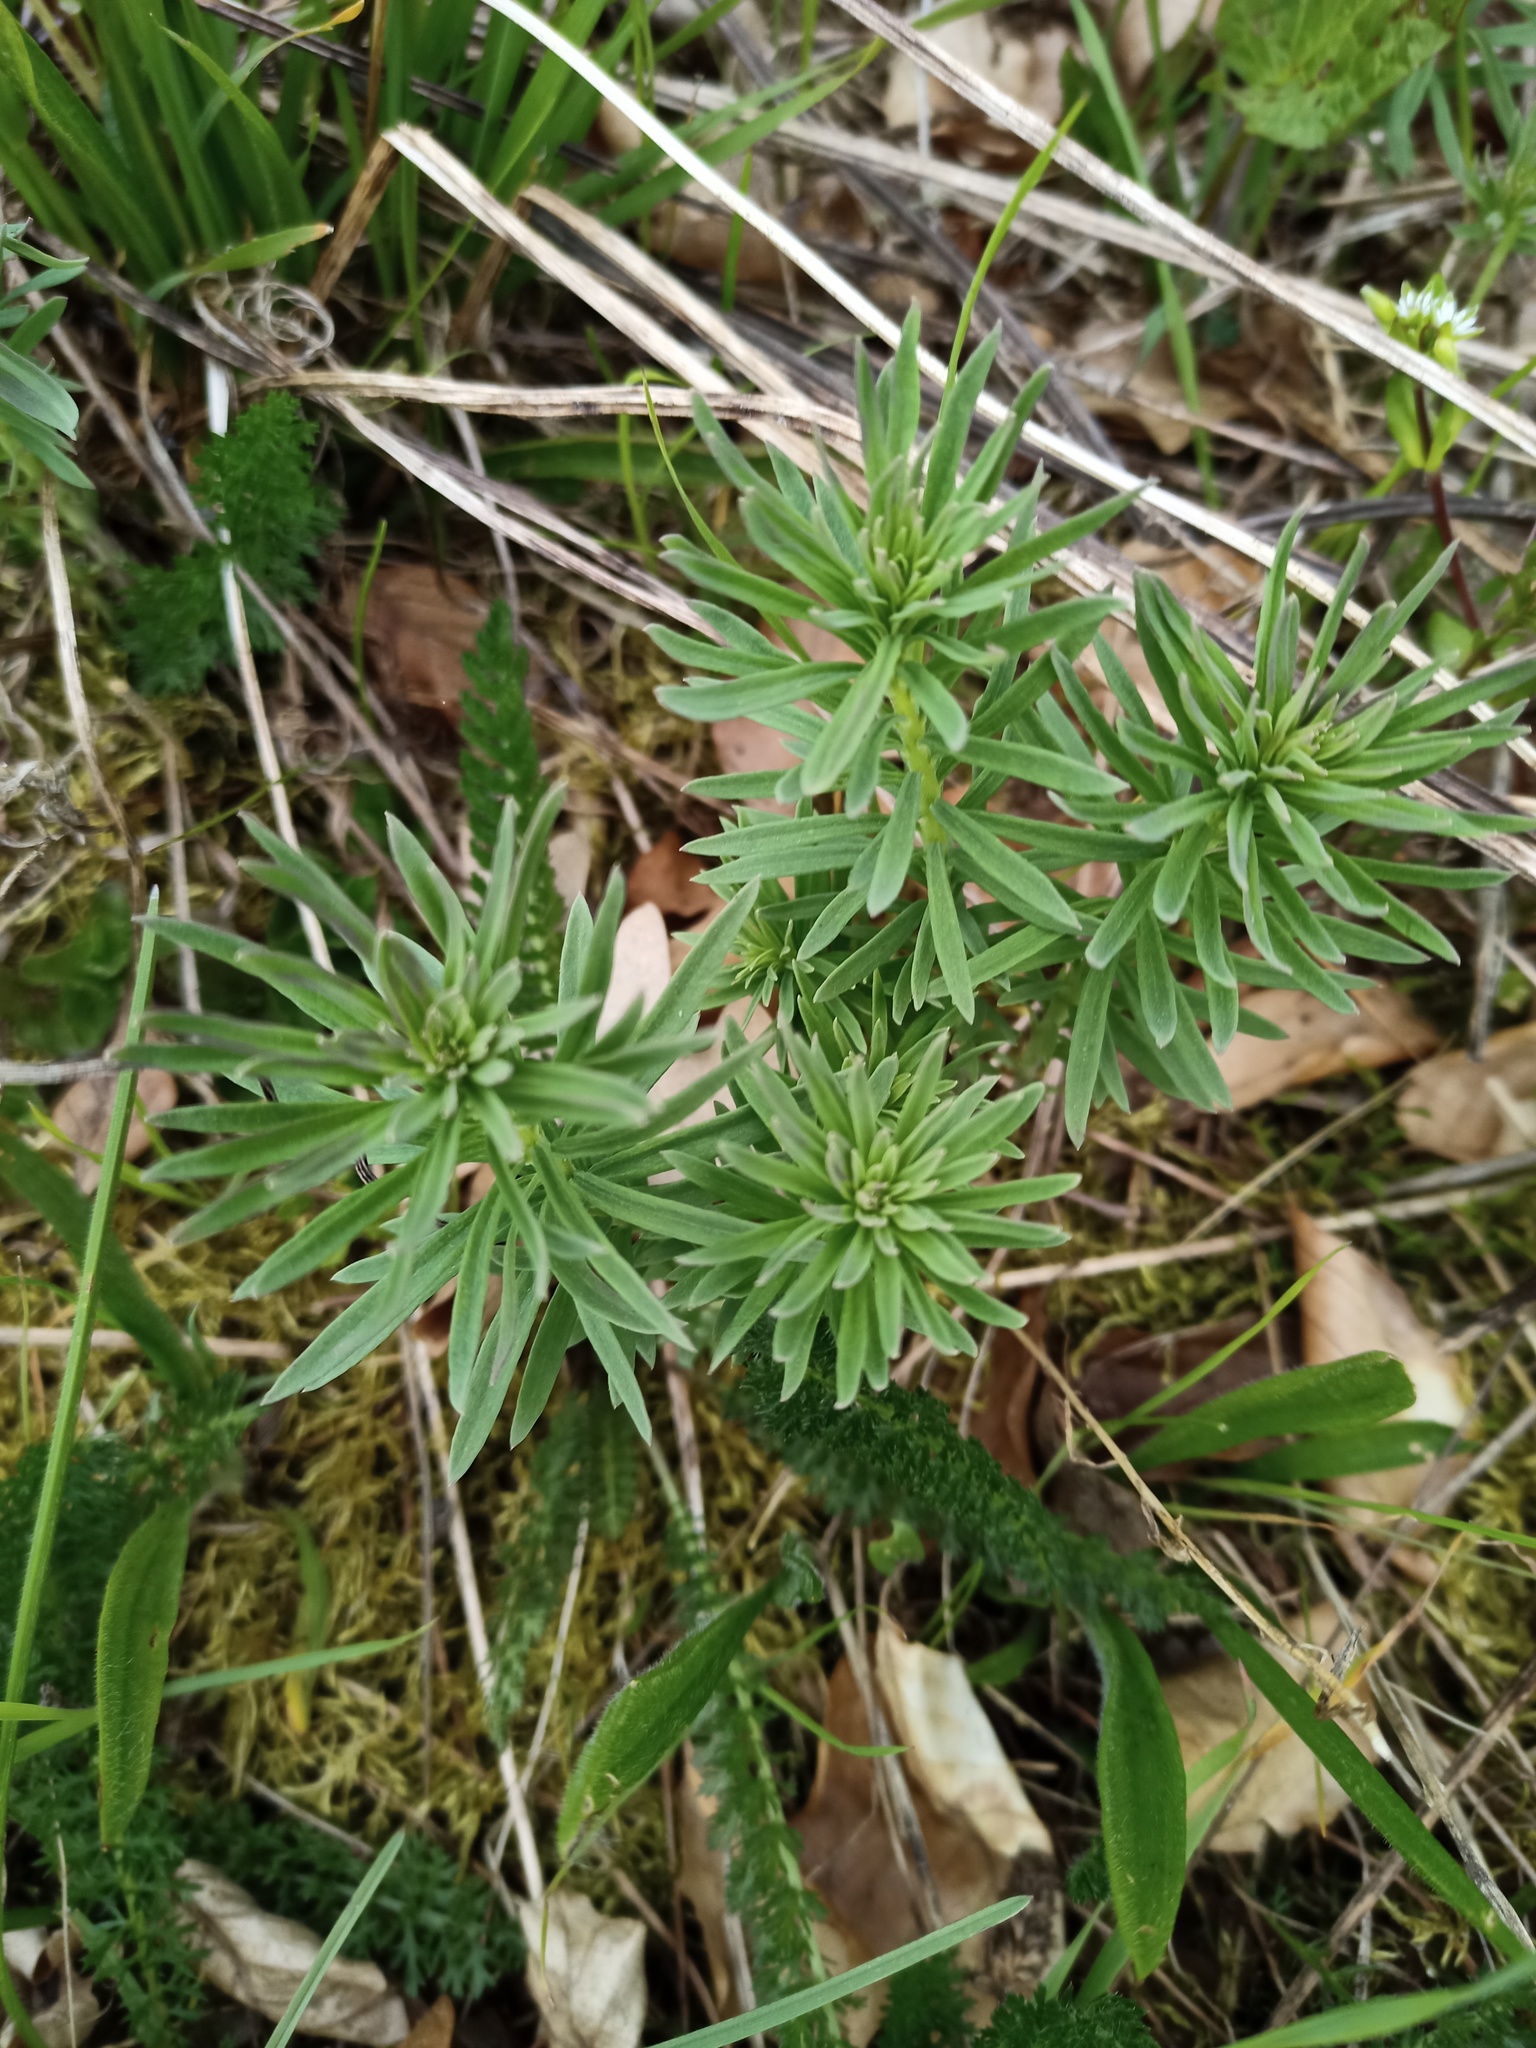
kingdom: Plantae
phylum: Tracheophyta
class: Magnoliopsida
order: Malpighiales
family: Euphorbiaceae
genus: Euphorbia
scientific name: Euphorbia cyparissias
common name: Cypress spurge
